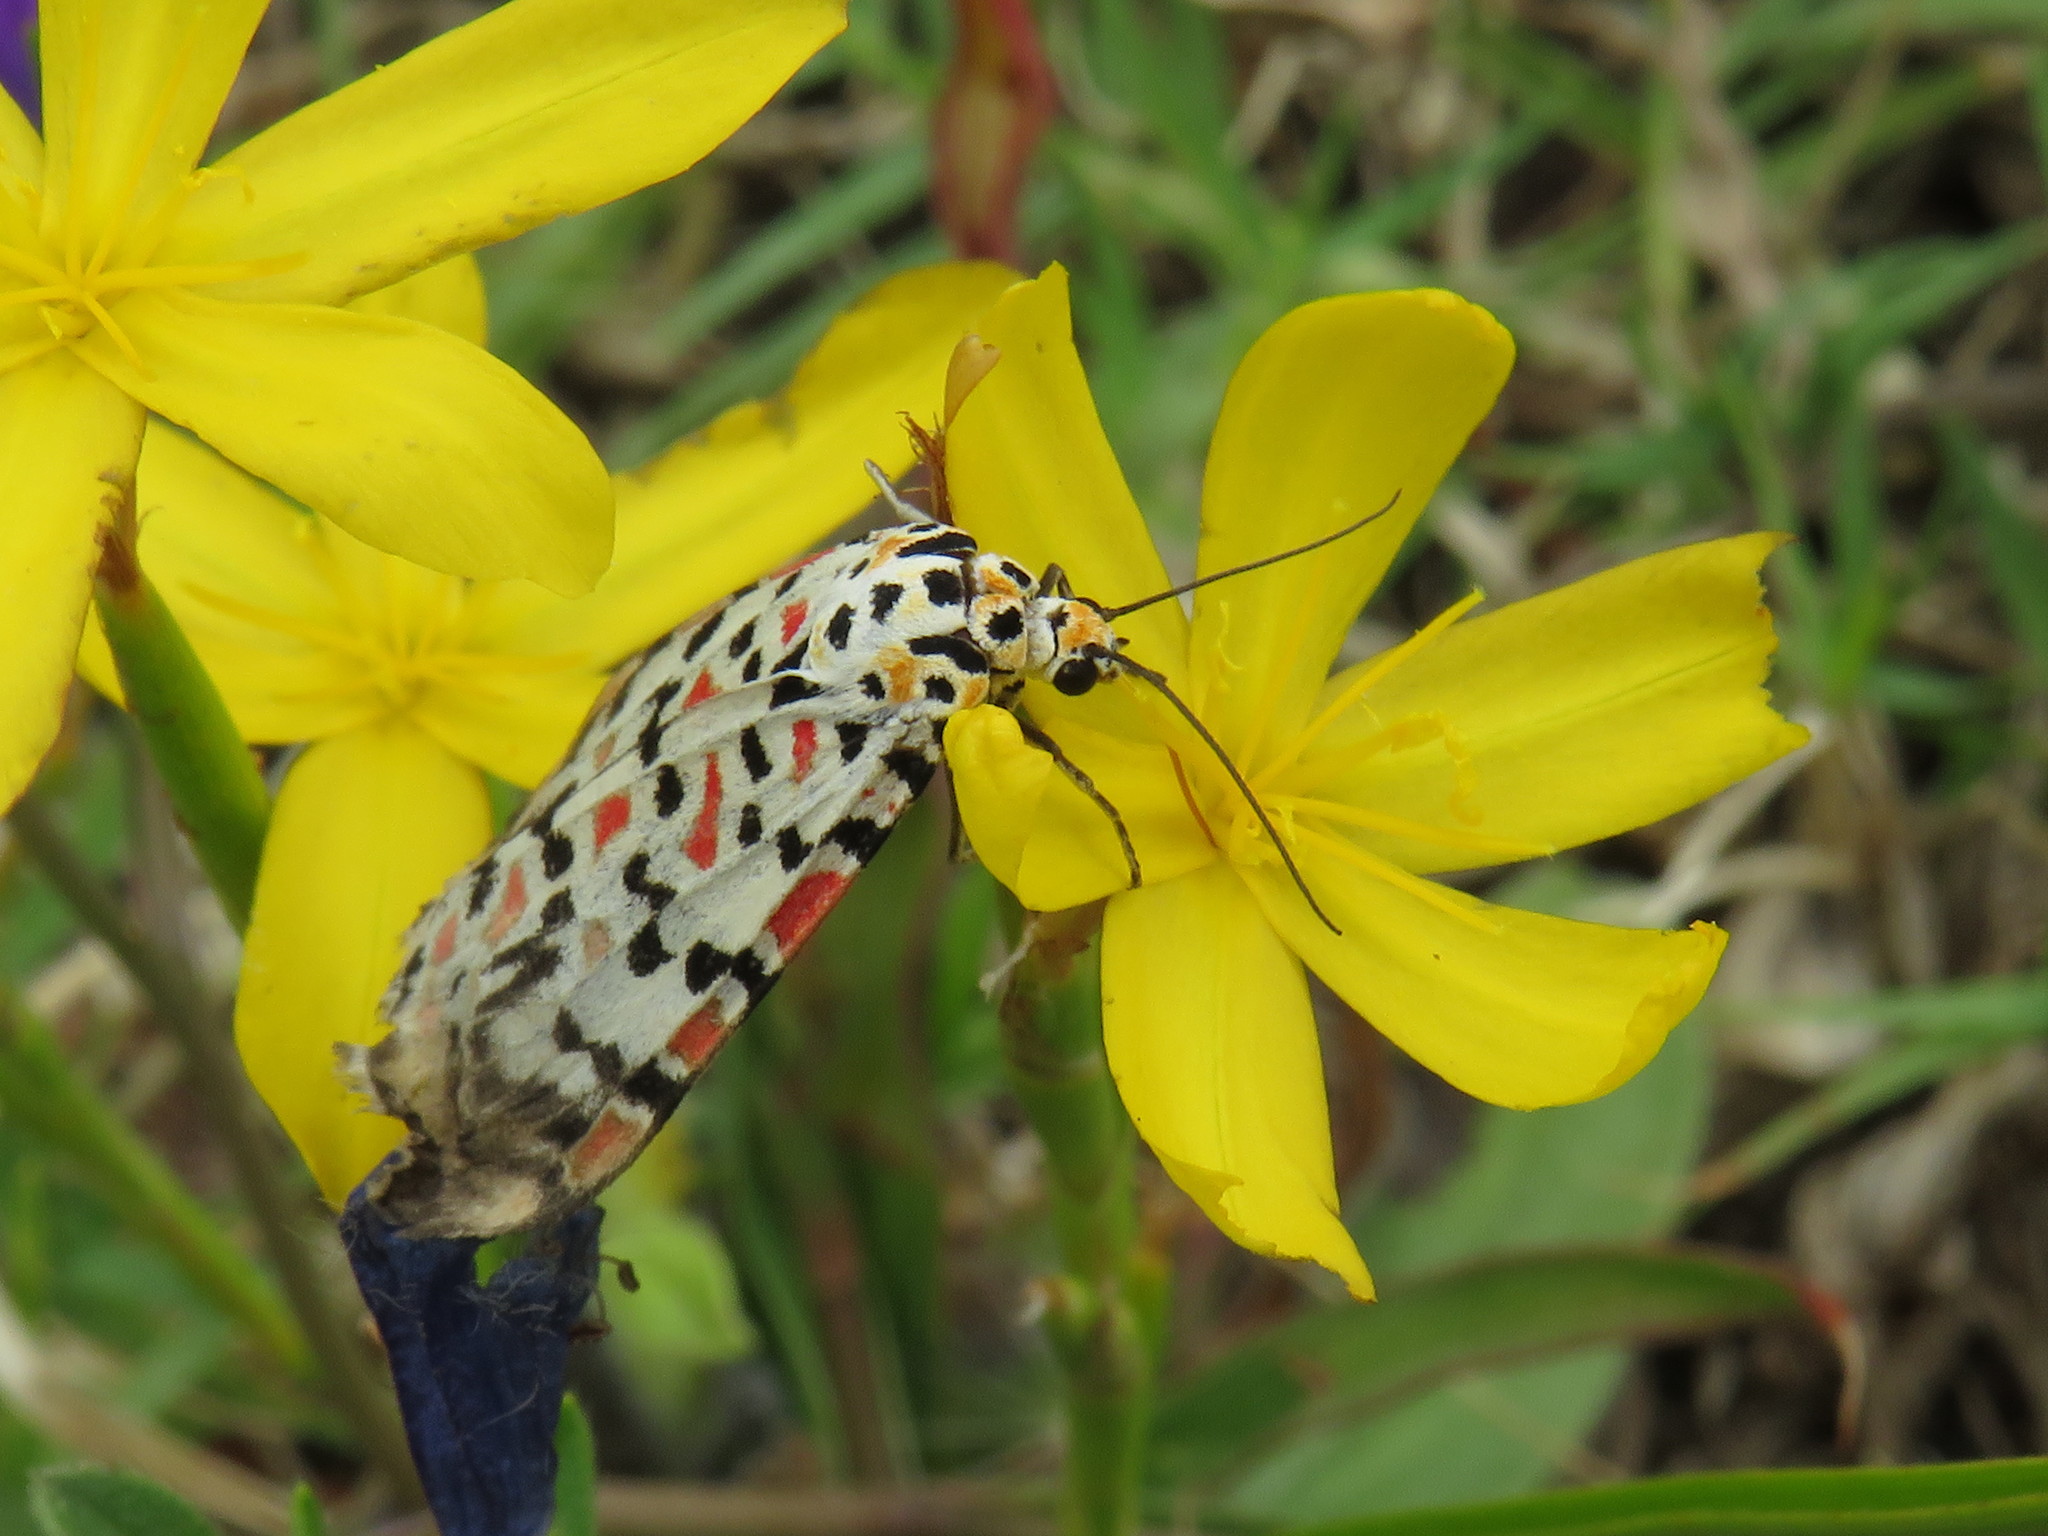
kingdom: Animalia
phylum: Arthropoda
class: Insecta
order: Lepidoptera
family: Erebidae
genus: Utetheisa
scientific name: Utetheisa pulchella
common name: Crimson speckled
